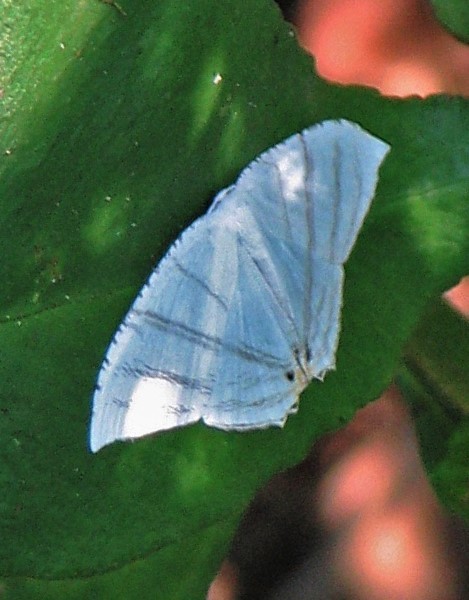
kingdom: Animalia
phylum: Arthropoda
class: Insecta
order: Lepidoptera
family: Uraniidae
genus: Epiplema
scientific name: Epiplema albipennaria
